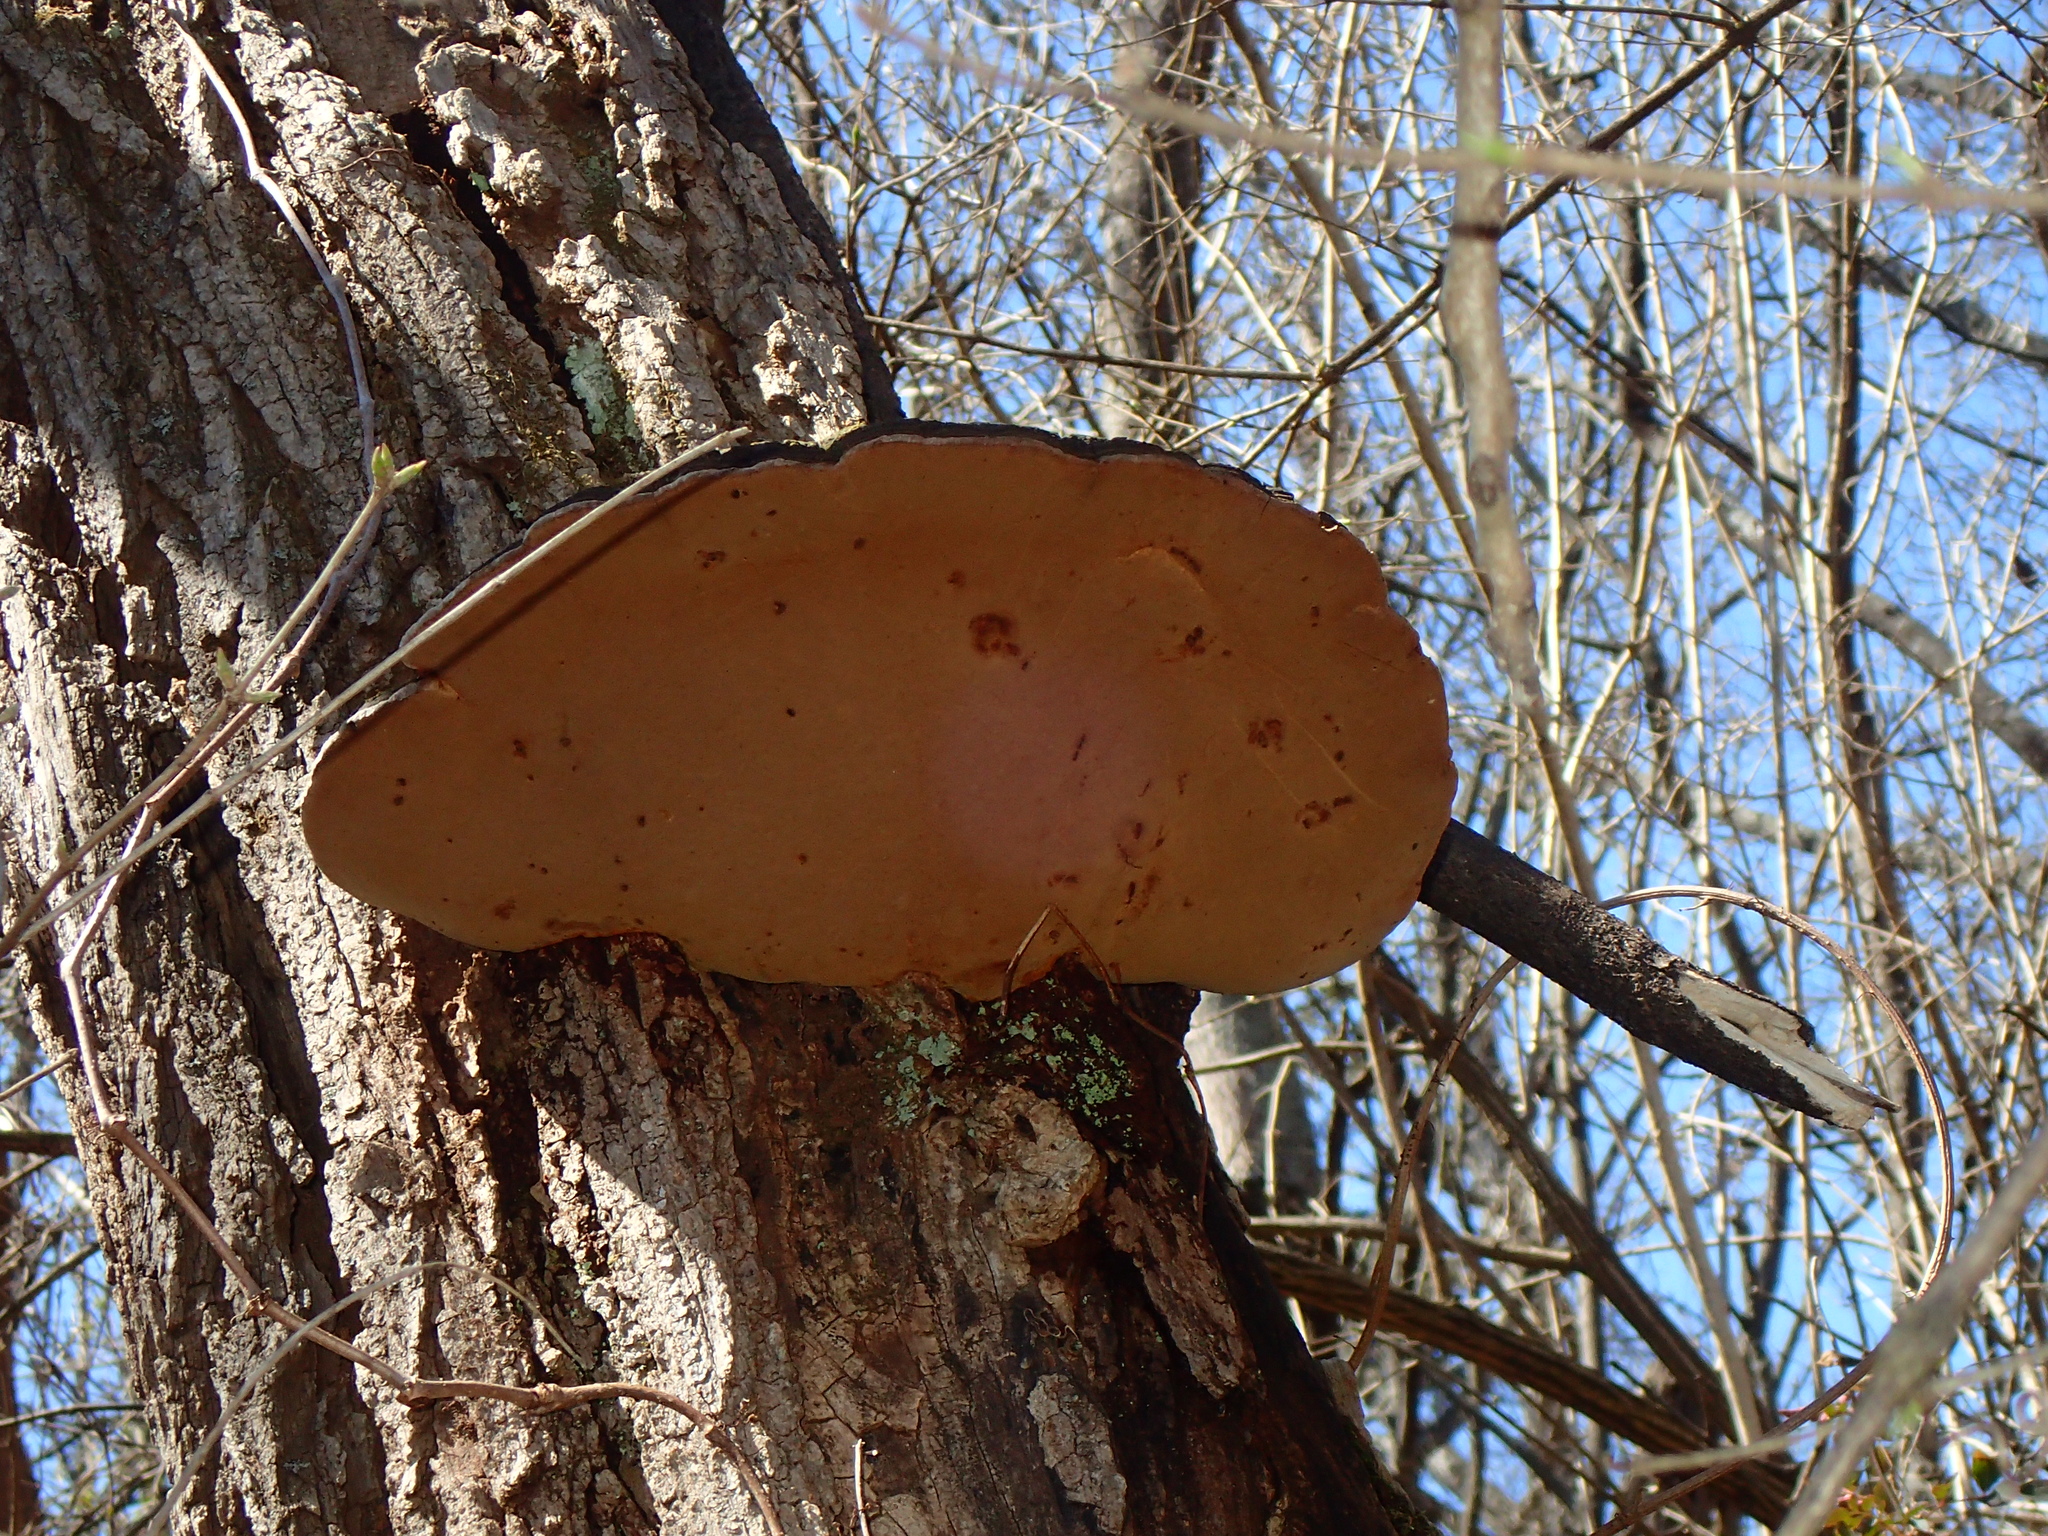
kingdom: Fungi
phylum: Basidiomycota
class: Agaricomycetes
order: Hymenochaetales
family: Hymenochaetaceae
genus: Phellinus
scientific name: Phellinus robiniae
